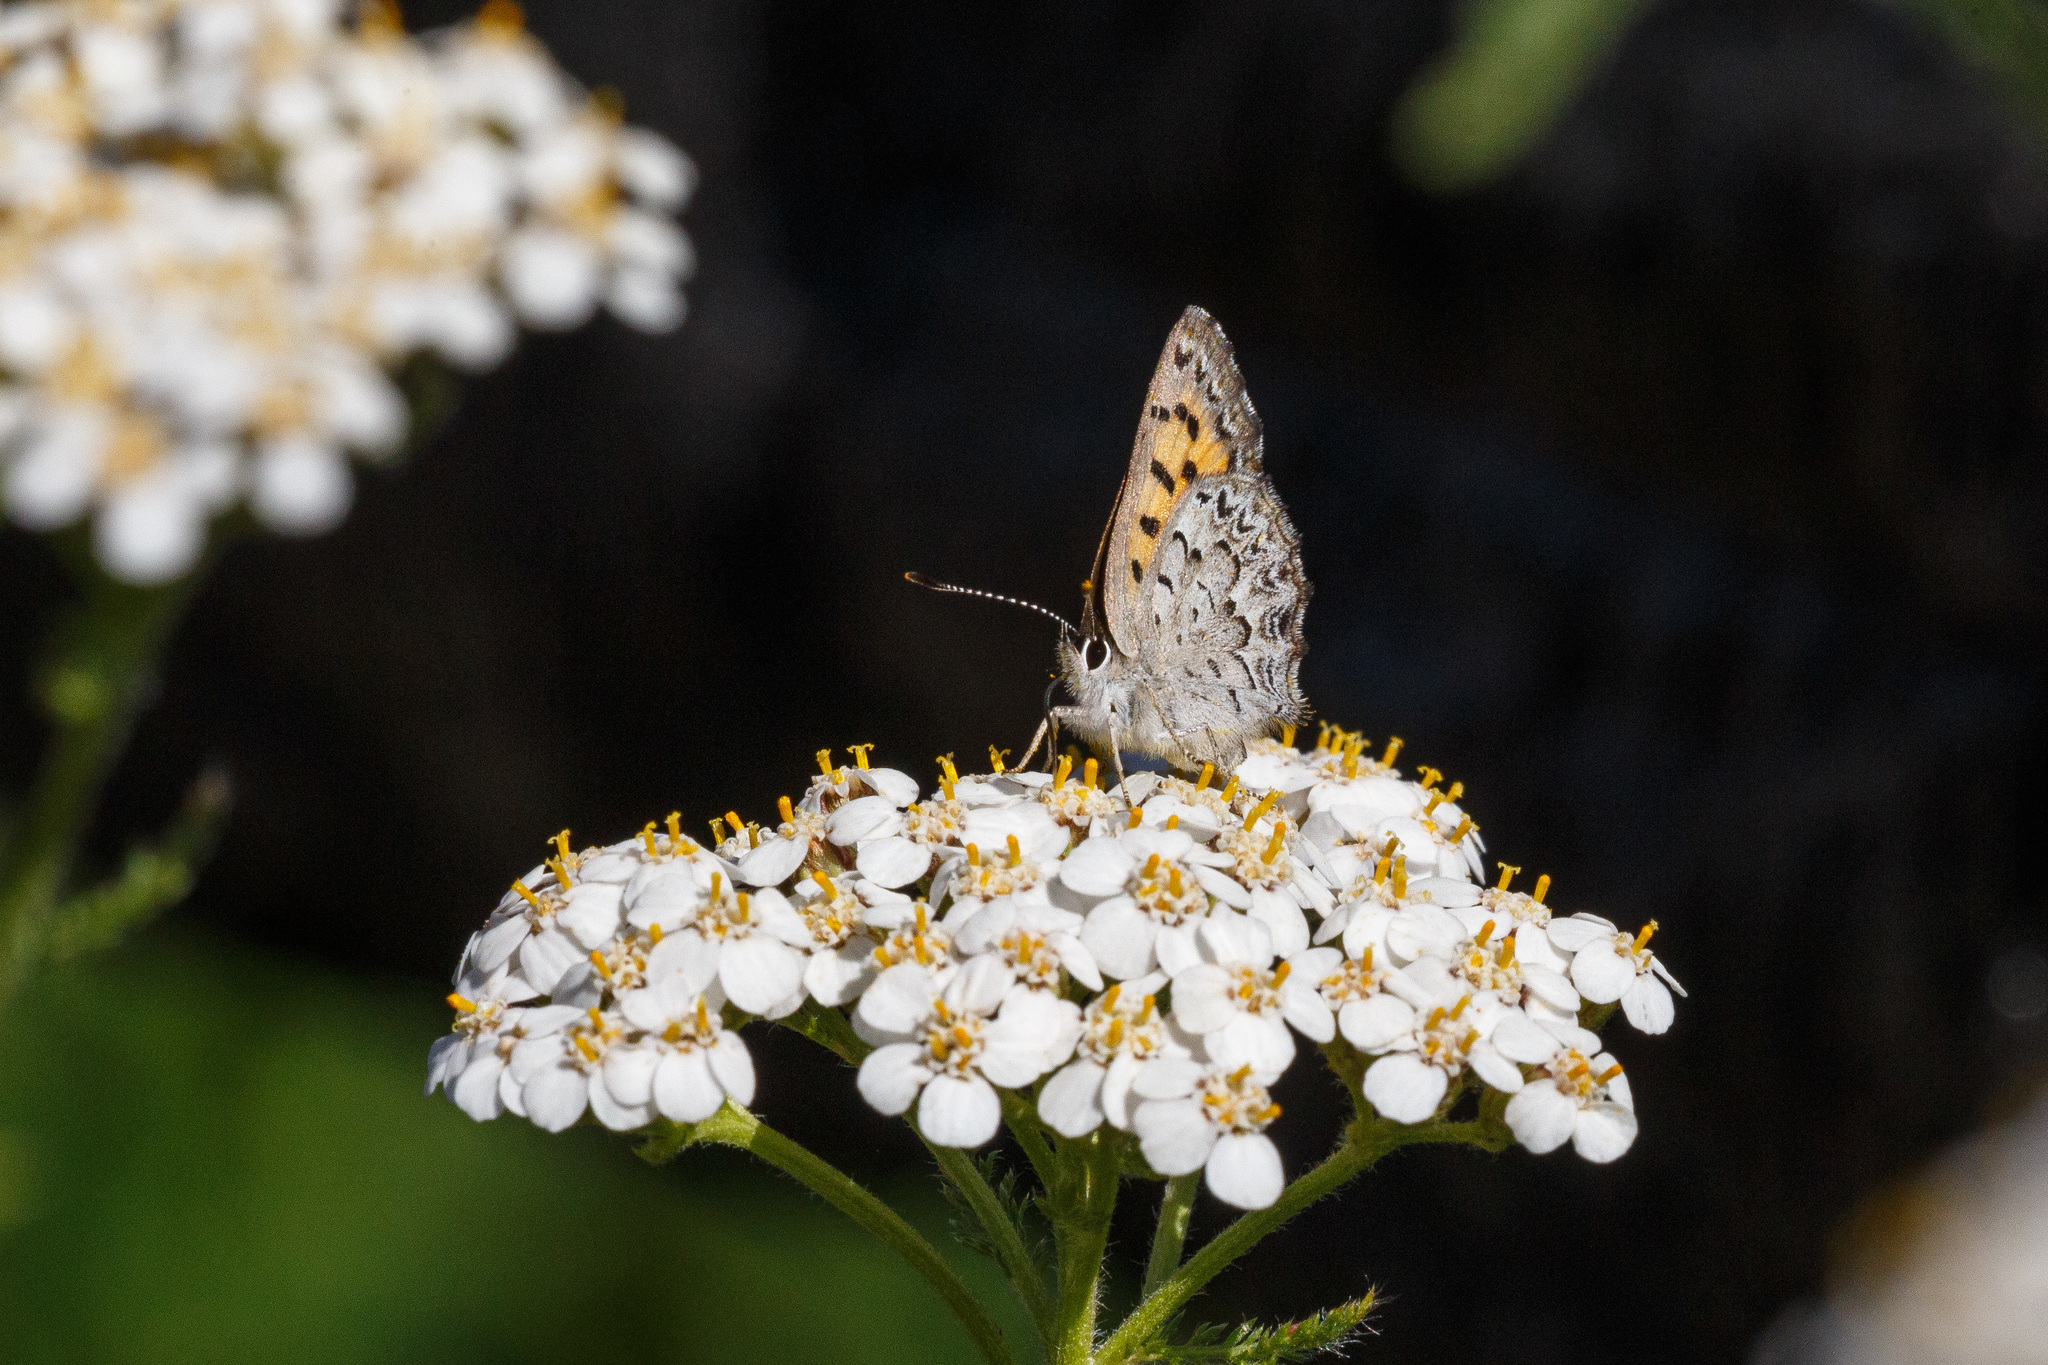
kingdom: Animalia
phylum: Arthropoda
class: Insecta
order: Lepidoptera
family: Lycaenidae
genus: Tharsalea
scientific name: Tharsalea mariposa
